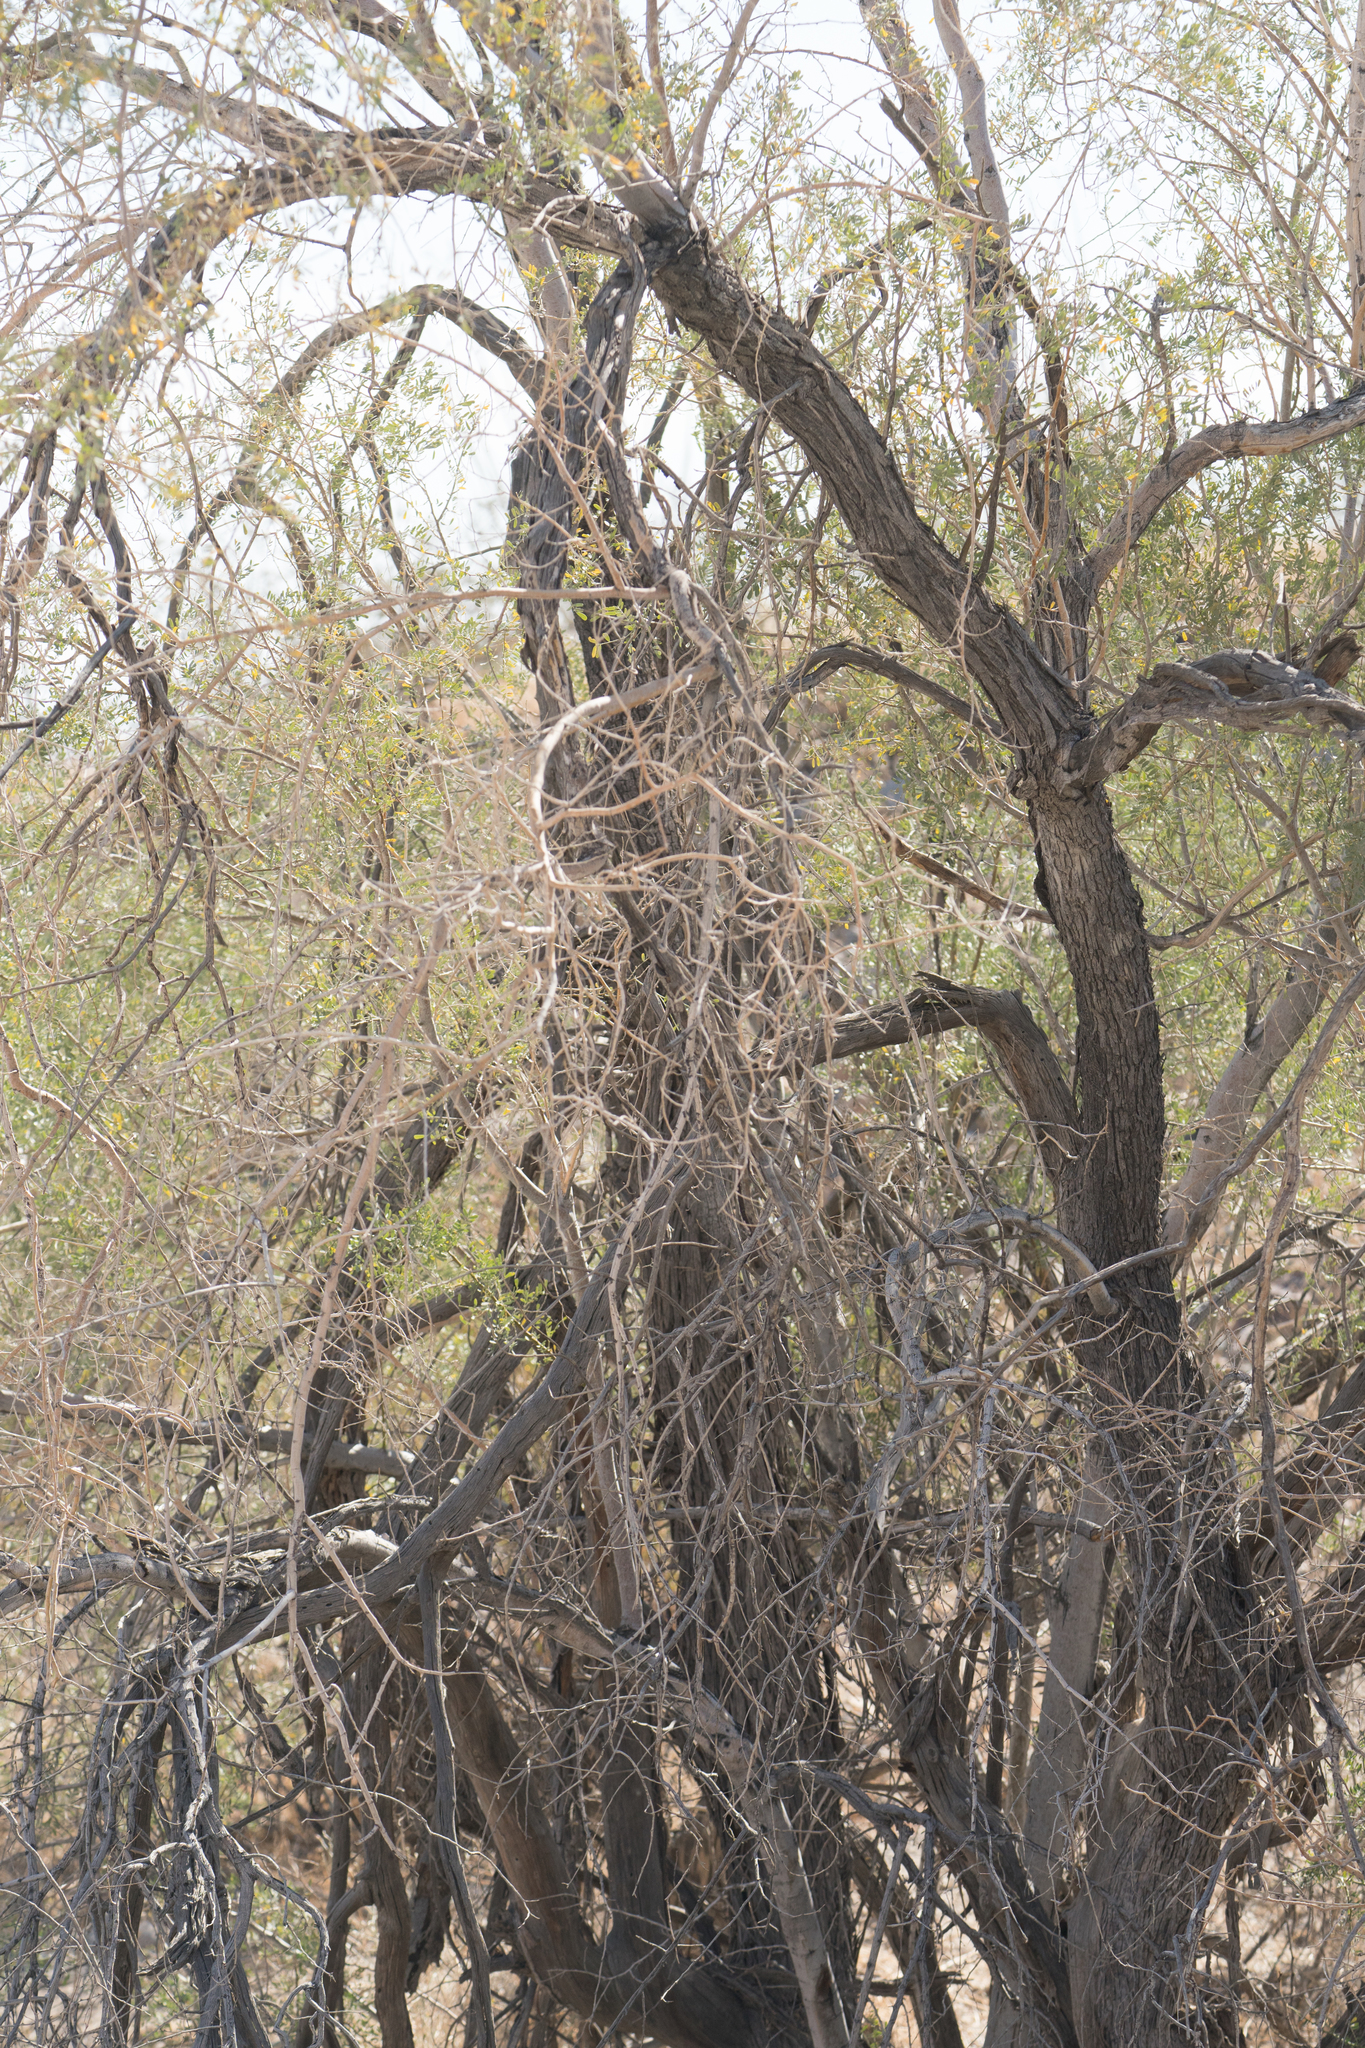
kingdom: Plantae
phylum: Tracheophyta
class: Magnoliopsida
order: Fabales
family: Fabaceae
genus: Olneya
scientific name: Olneya tesota
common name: Desert ironwood
